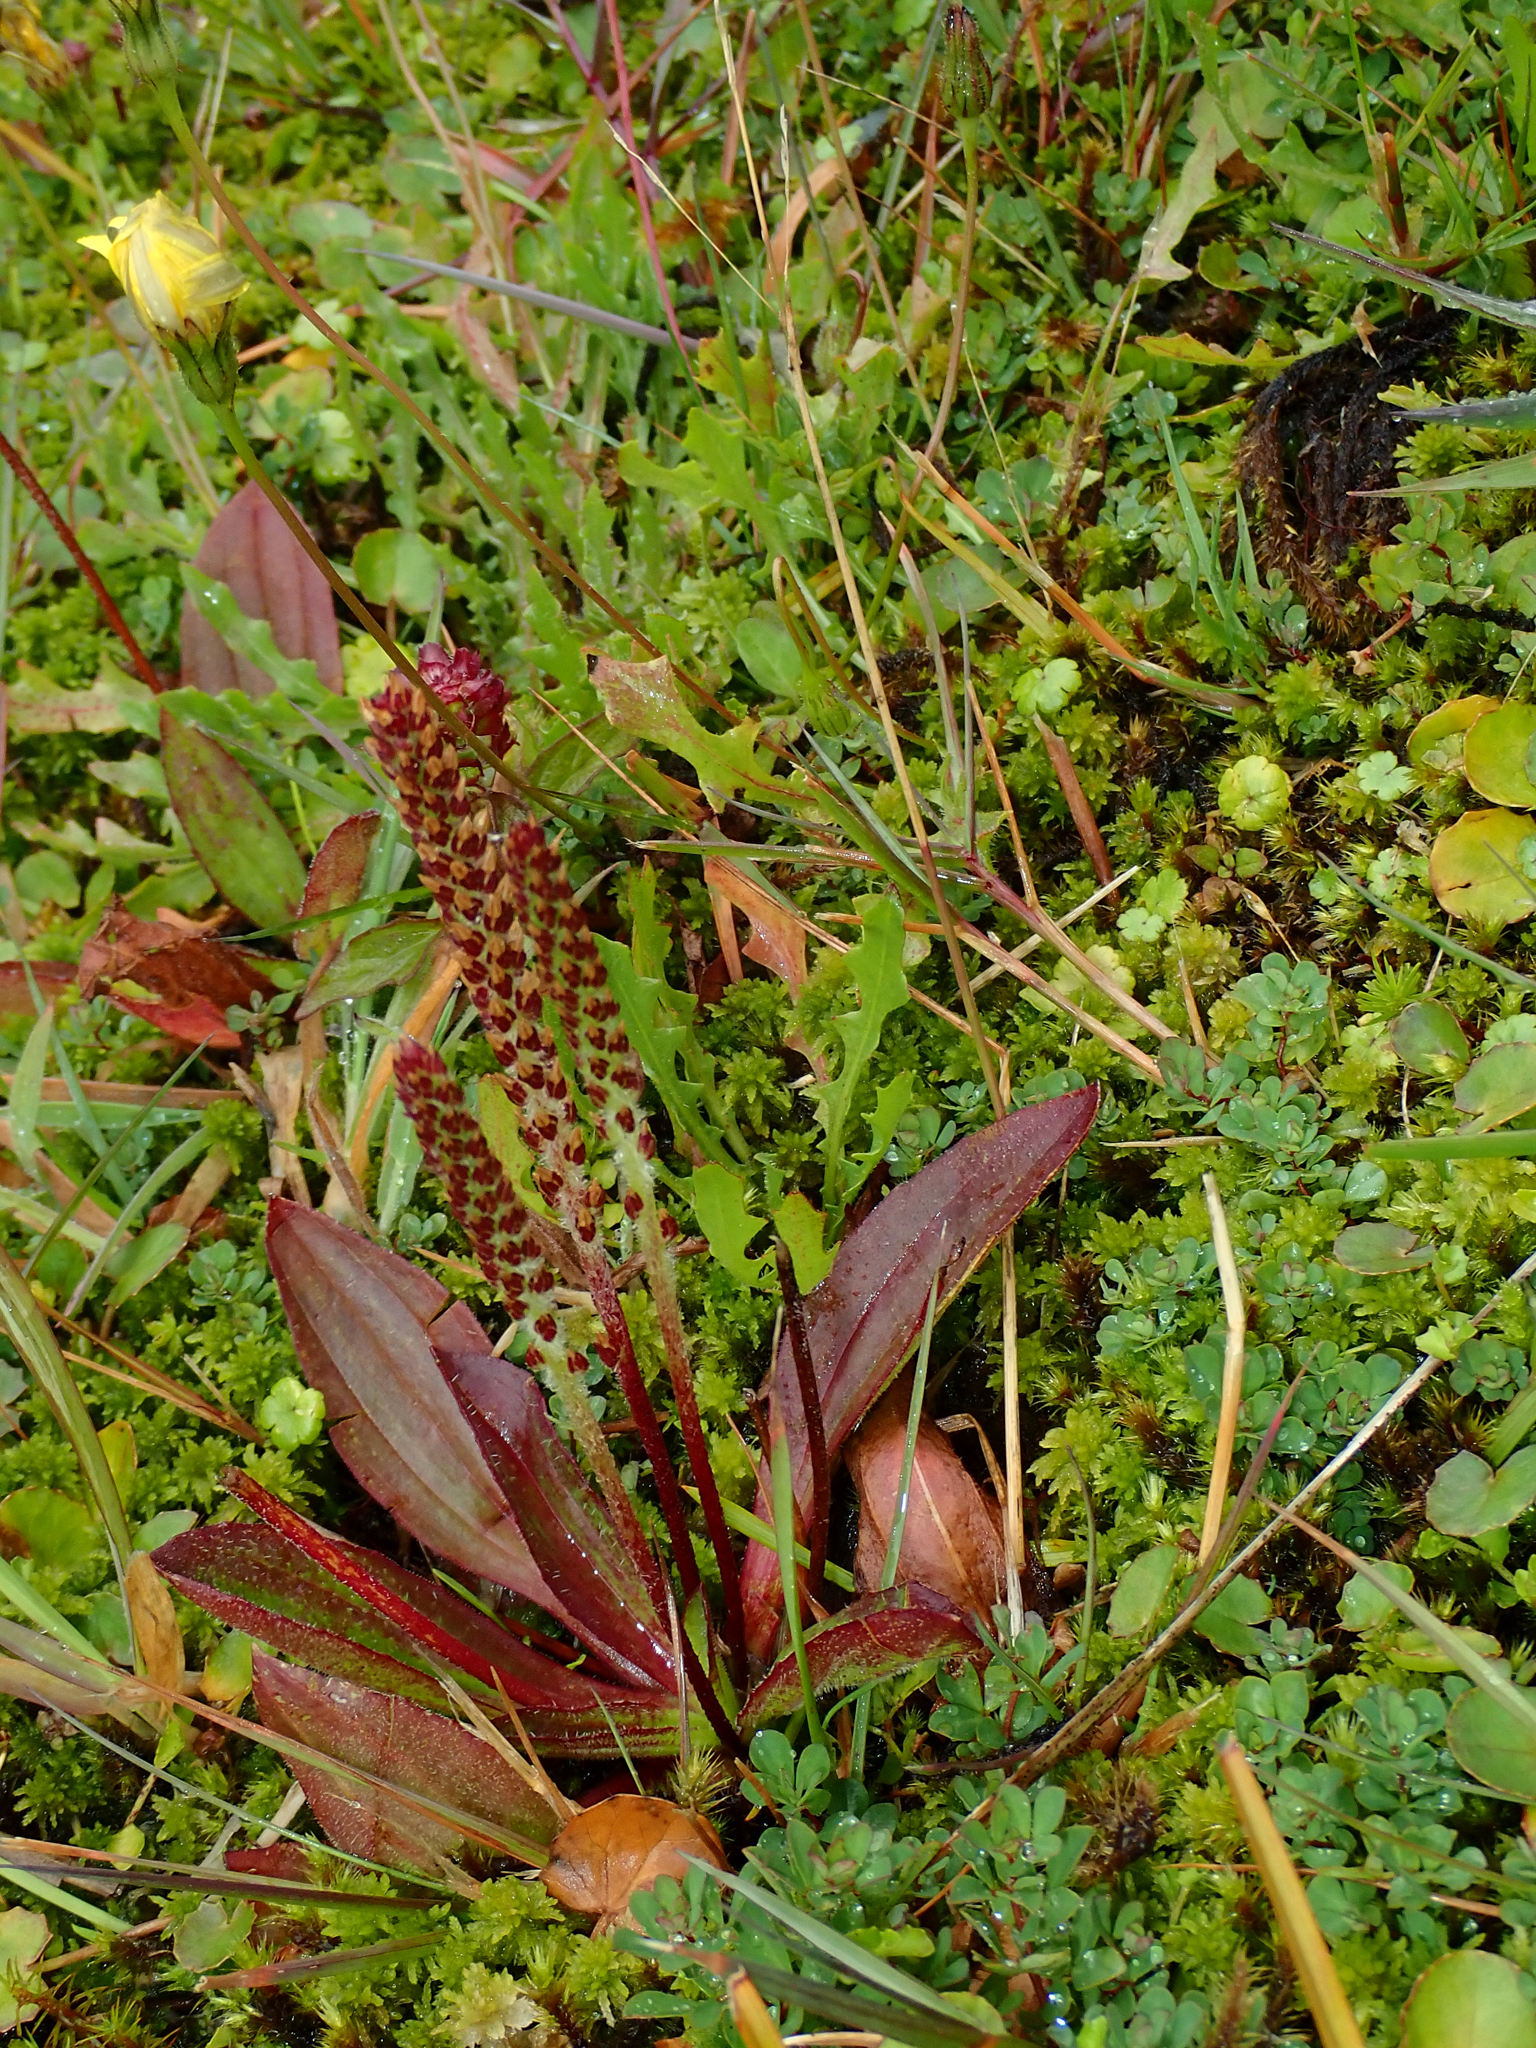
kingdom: Plantae
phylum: Tracheophyta
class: Magnoliopsida
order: Lamiales
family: Plantaginaceae
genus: Plantago
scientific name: Plantago australis
